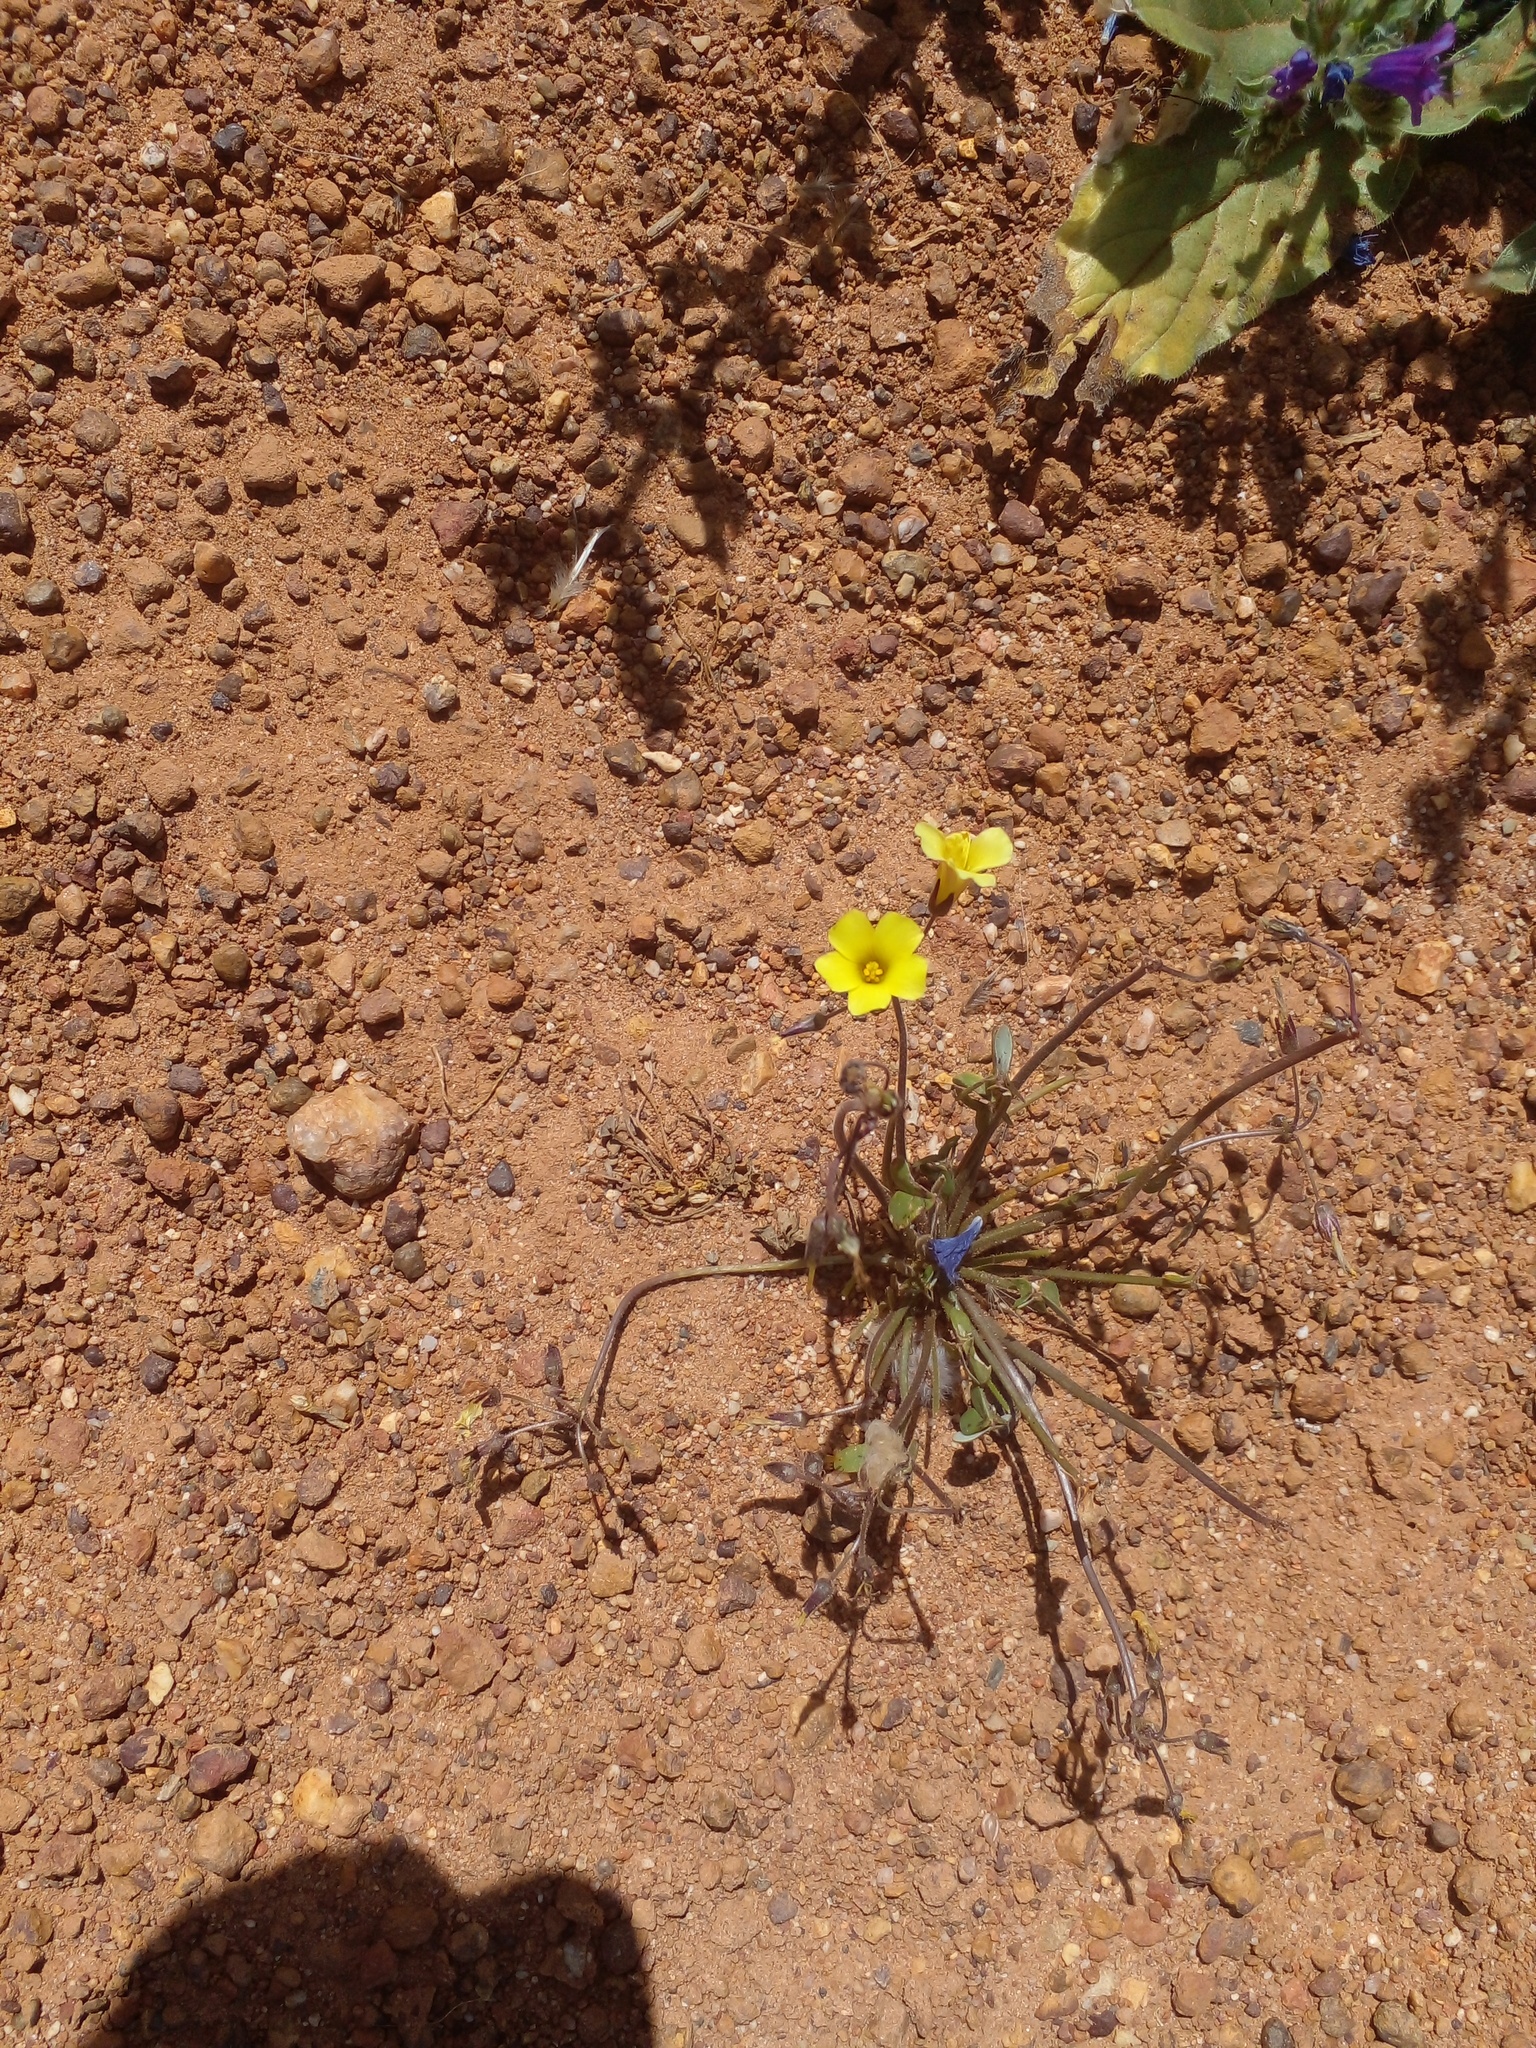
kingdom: Plantae
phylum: Tracheophyta
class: Magnoliopsida
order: Oxalidales
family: Oxalidaceae
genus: Oxalis
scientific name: Oxalis pes-caprae
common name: Bermuda-buttercup
